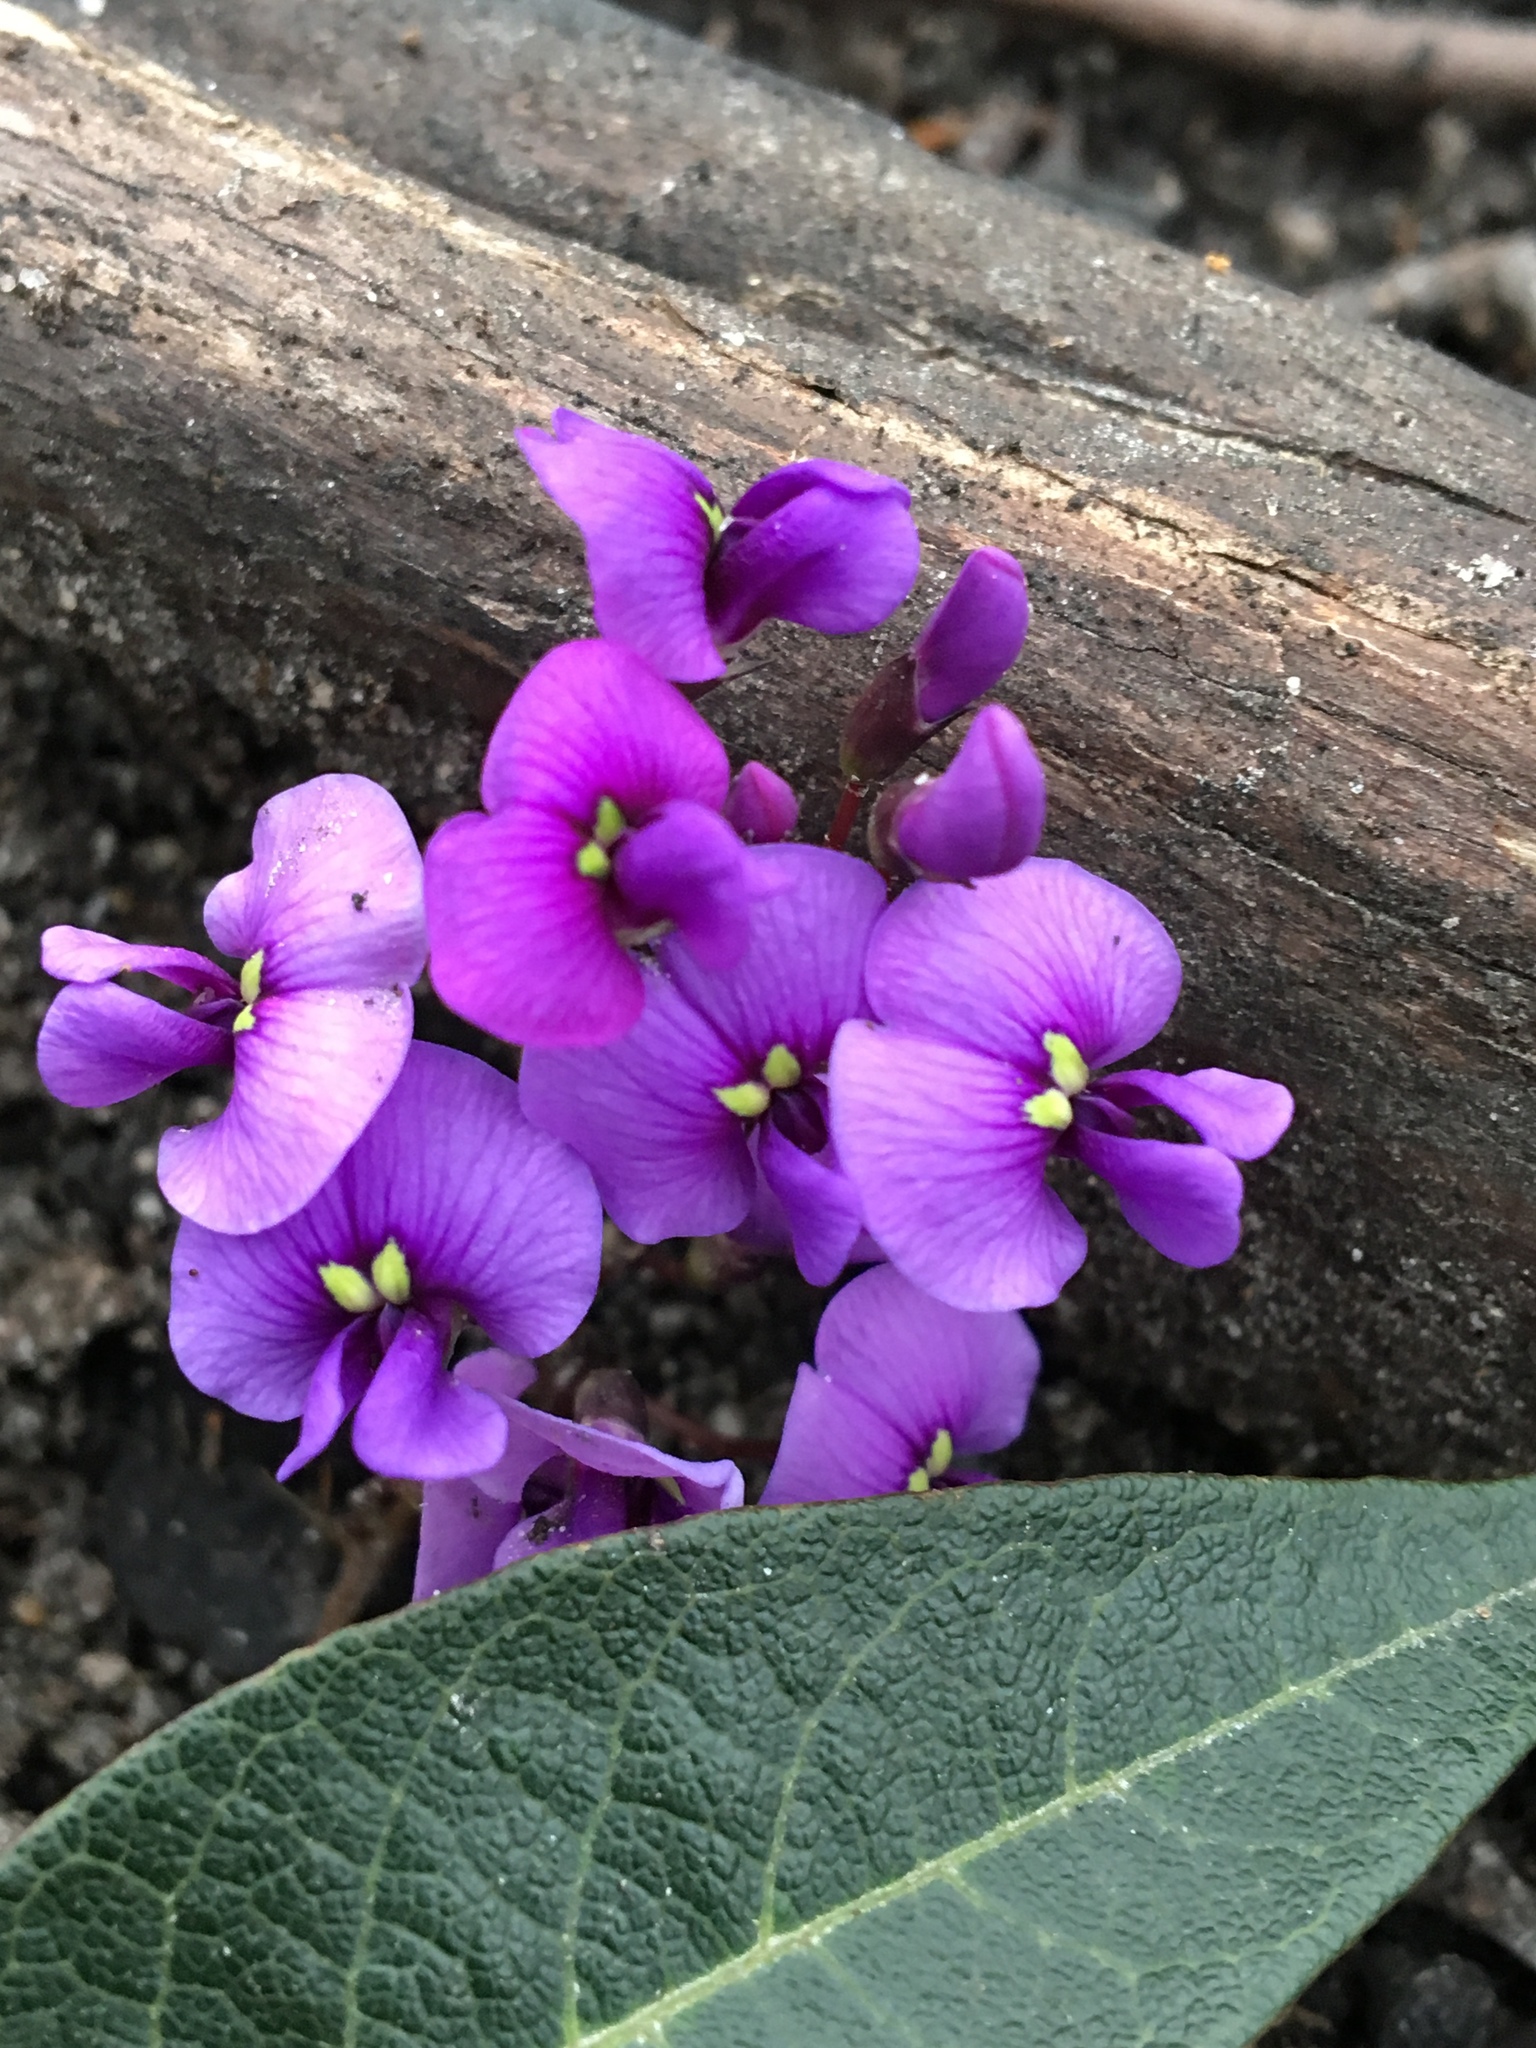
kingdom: Plantae
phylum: Tracheophyta
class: Magnoliopsida
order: Fabales
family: Fabaceae
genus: Hardenbergia
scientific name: Hardenbergia violacea
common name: Coral-pea
